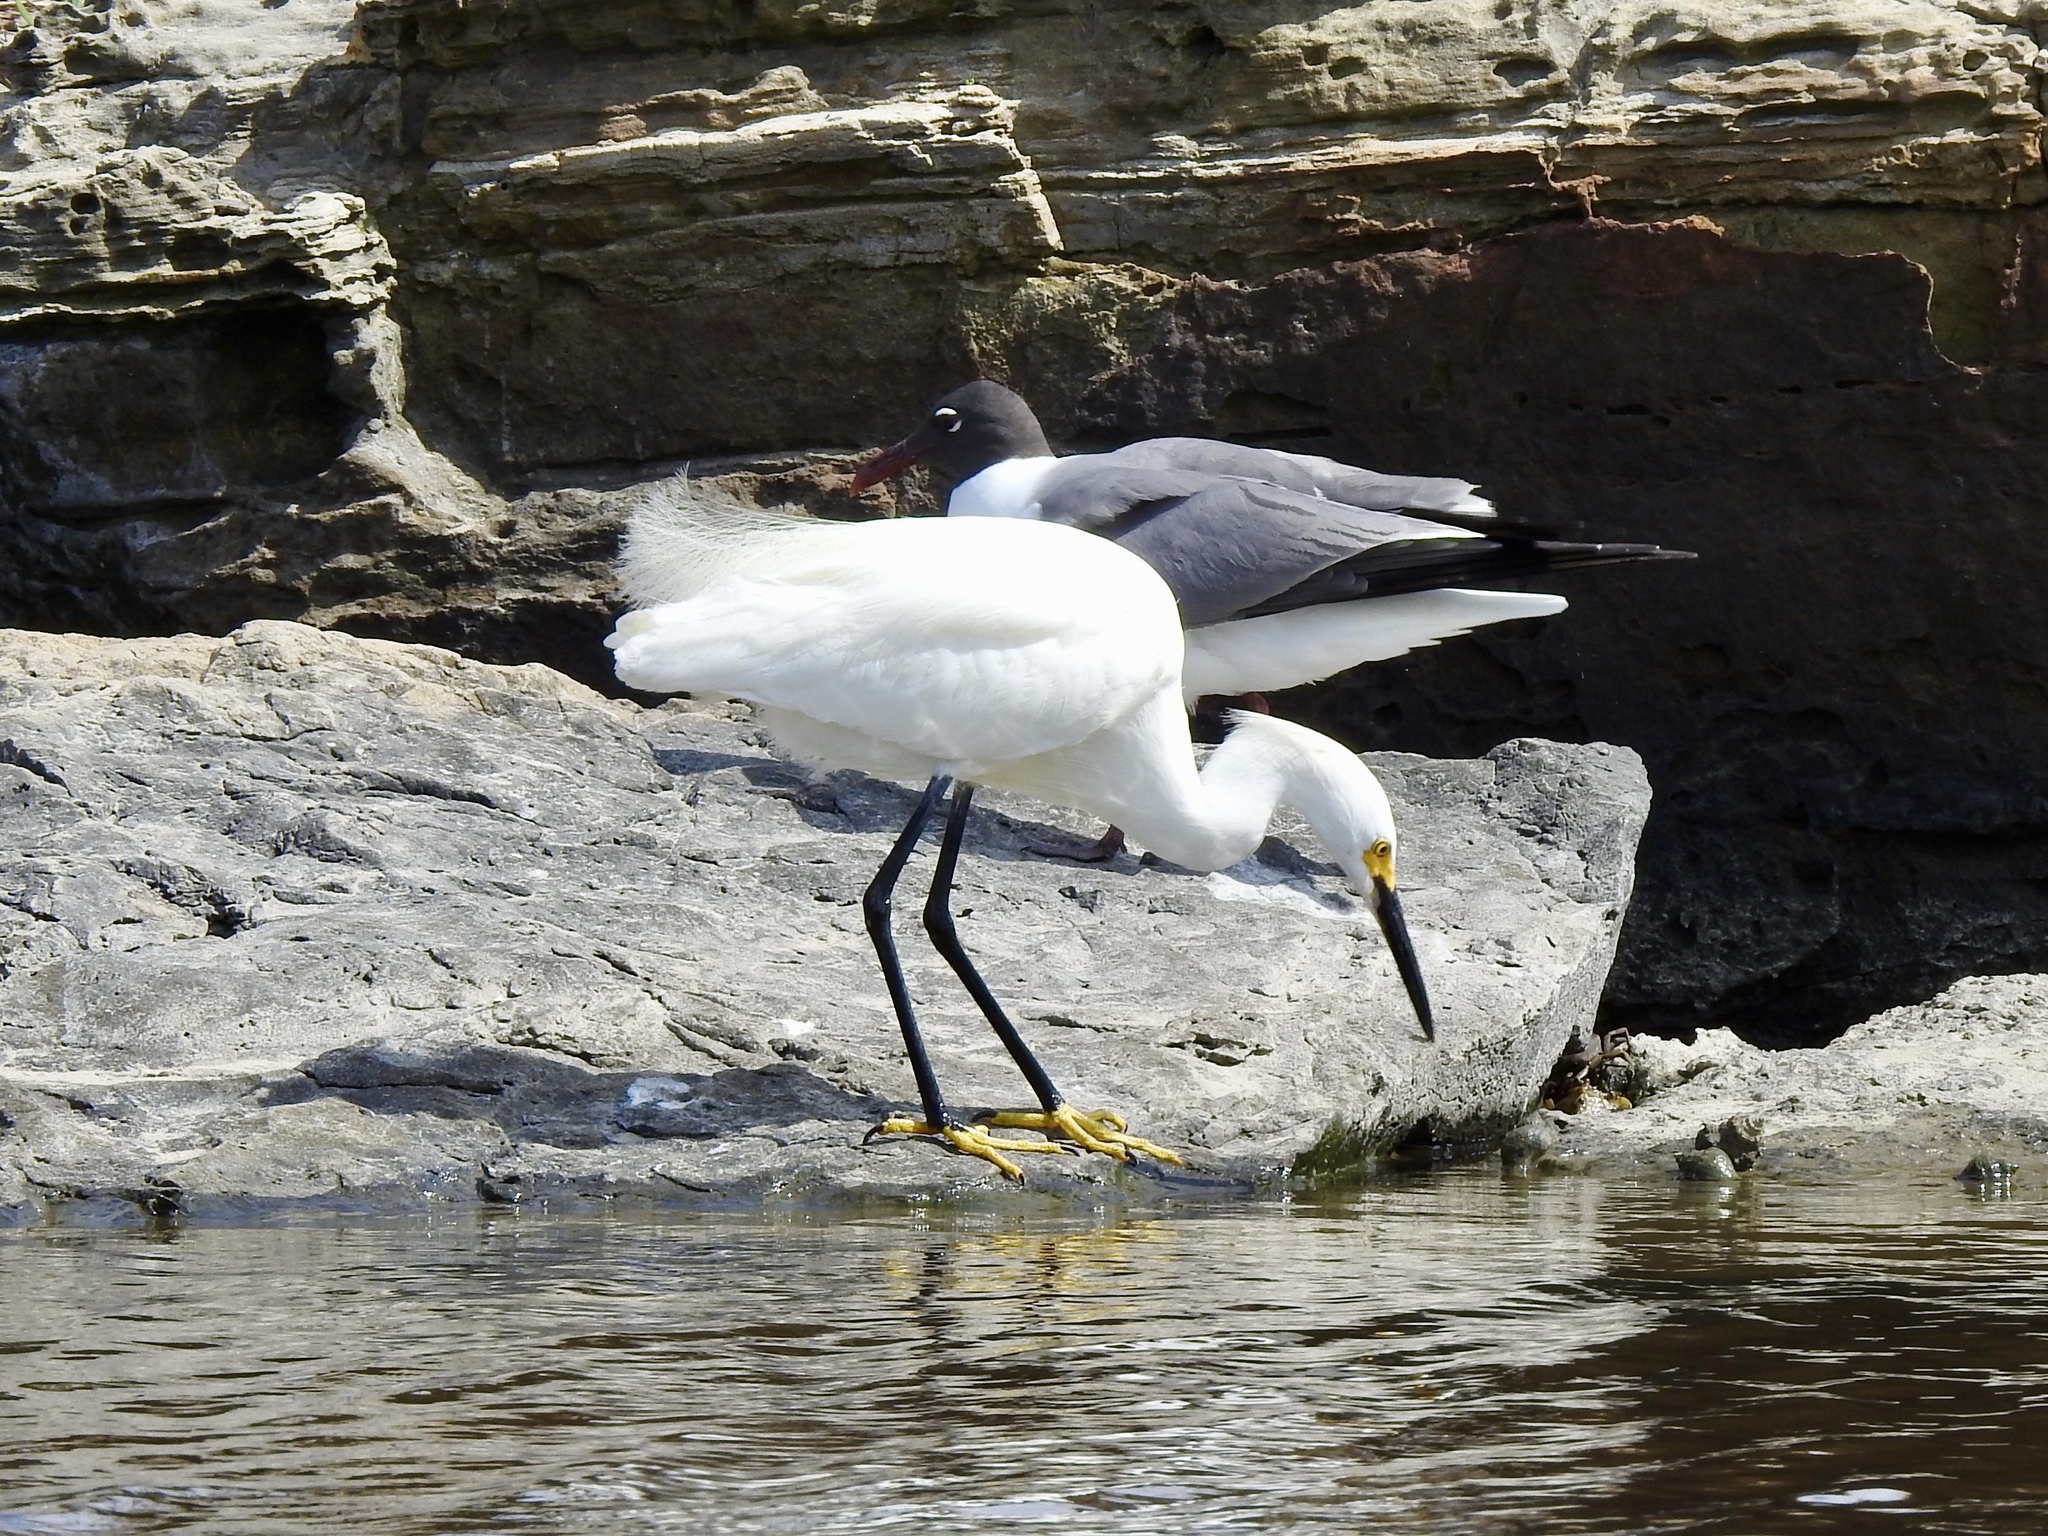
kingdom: Animalia
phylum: Chordata
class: Aves
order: Pelecaniformes
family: Ardeidae
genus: Egretta
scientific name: Egretta thula
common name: Snowy egret
